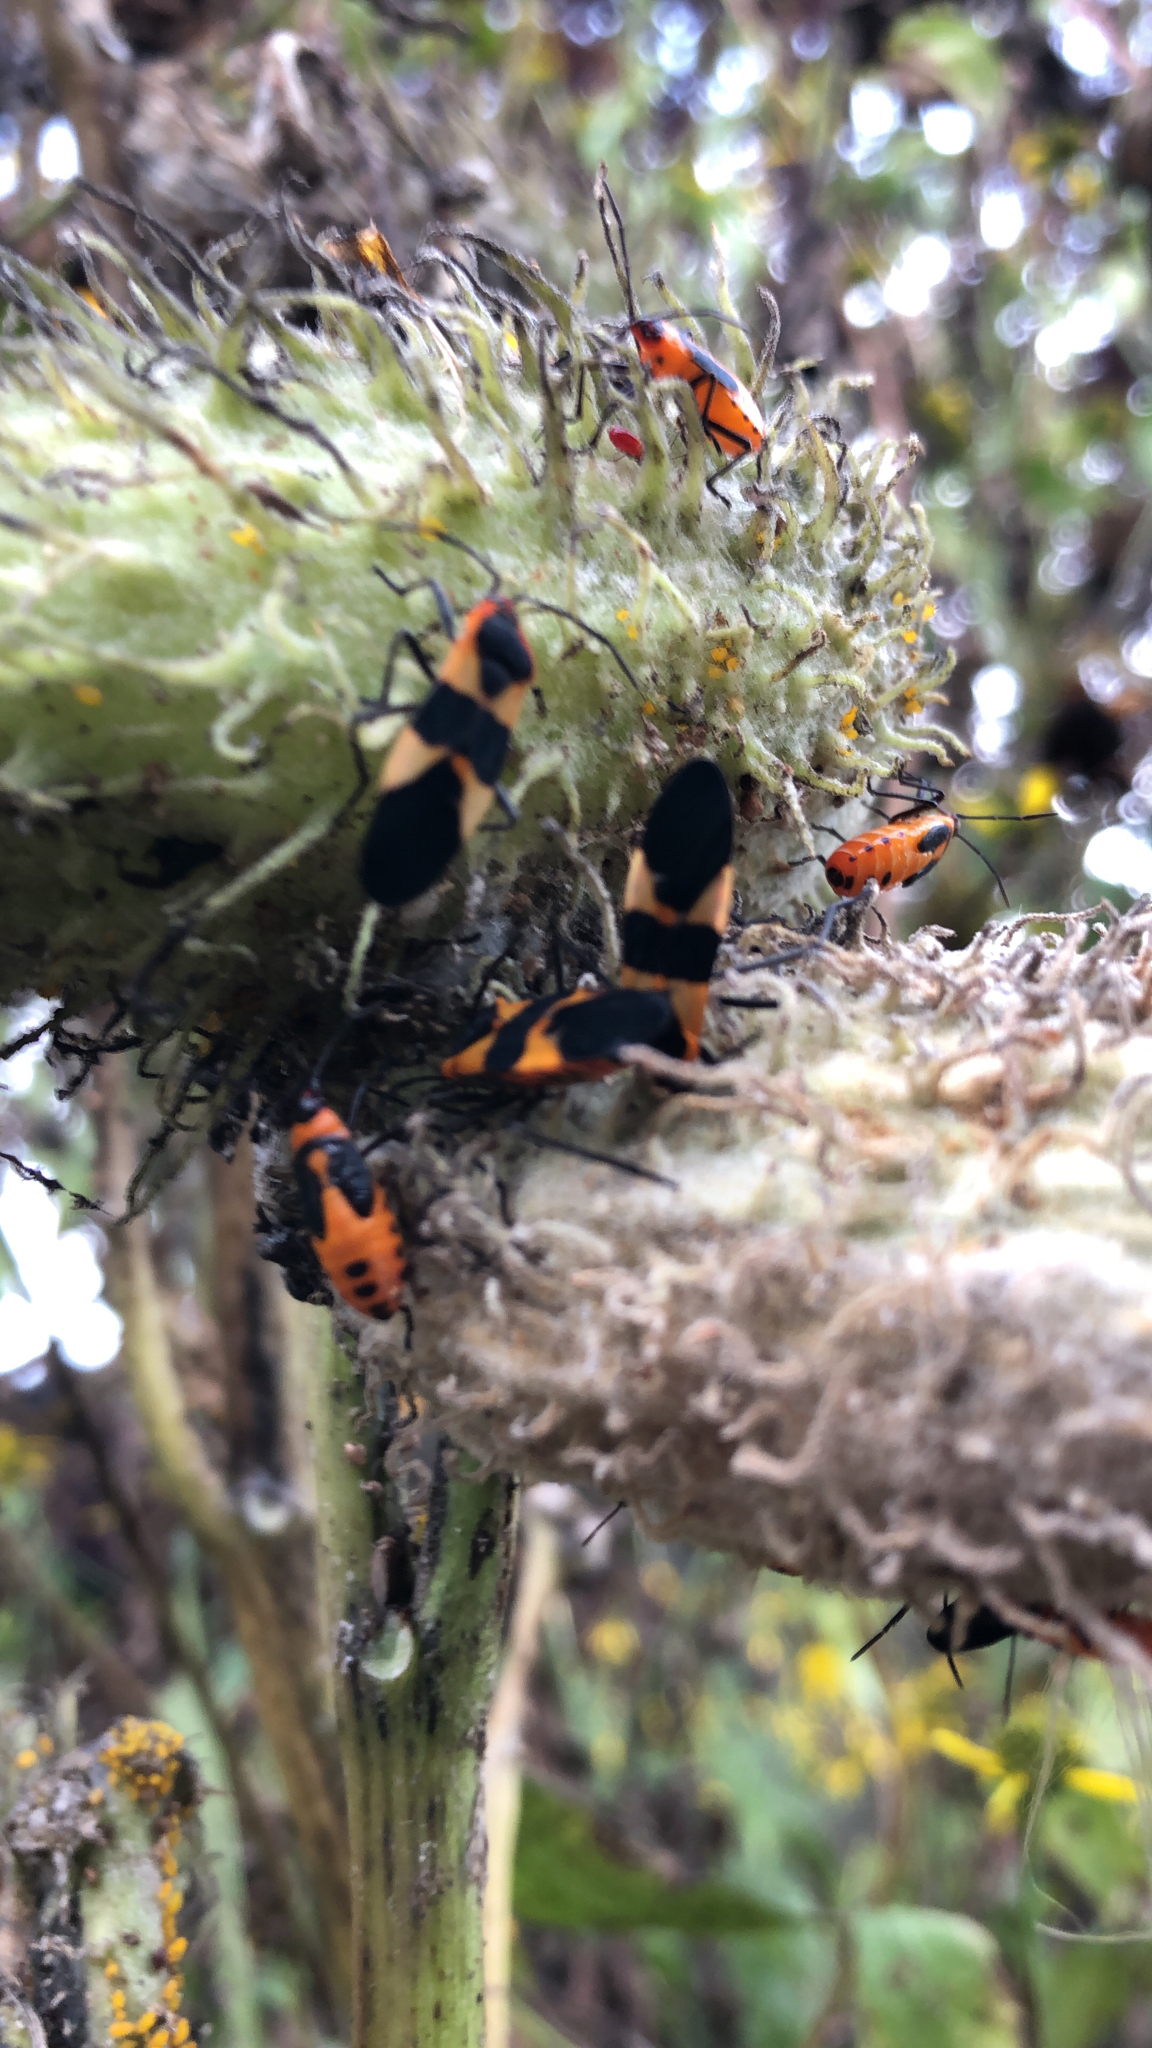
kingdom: Animalia
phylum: Arthropoda
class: Insecta
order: Hemiptera
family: Lygaeidae
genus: Oncopeltus
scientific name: Oncopeltus fasciatus
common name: Large milkweed bug
